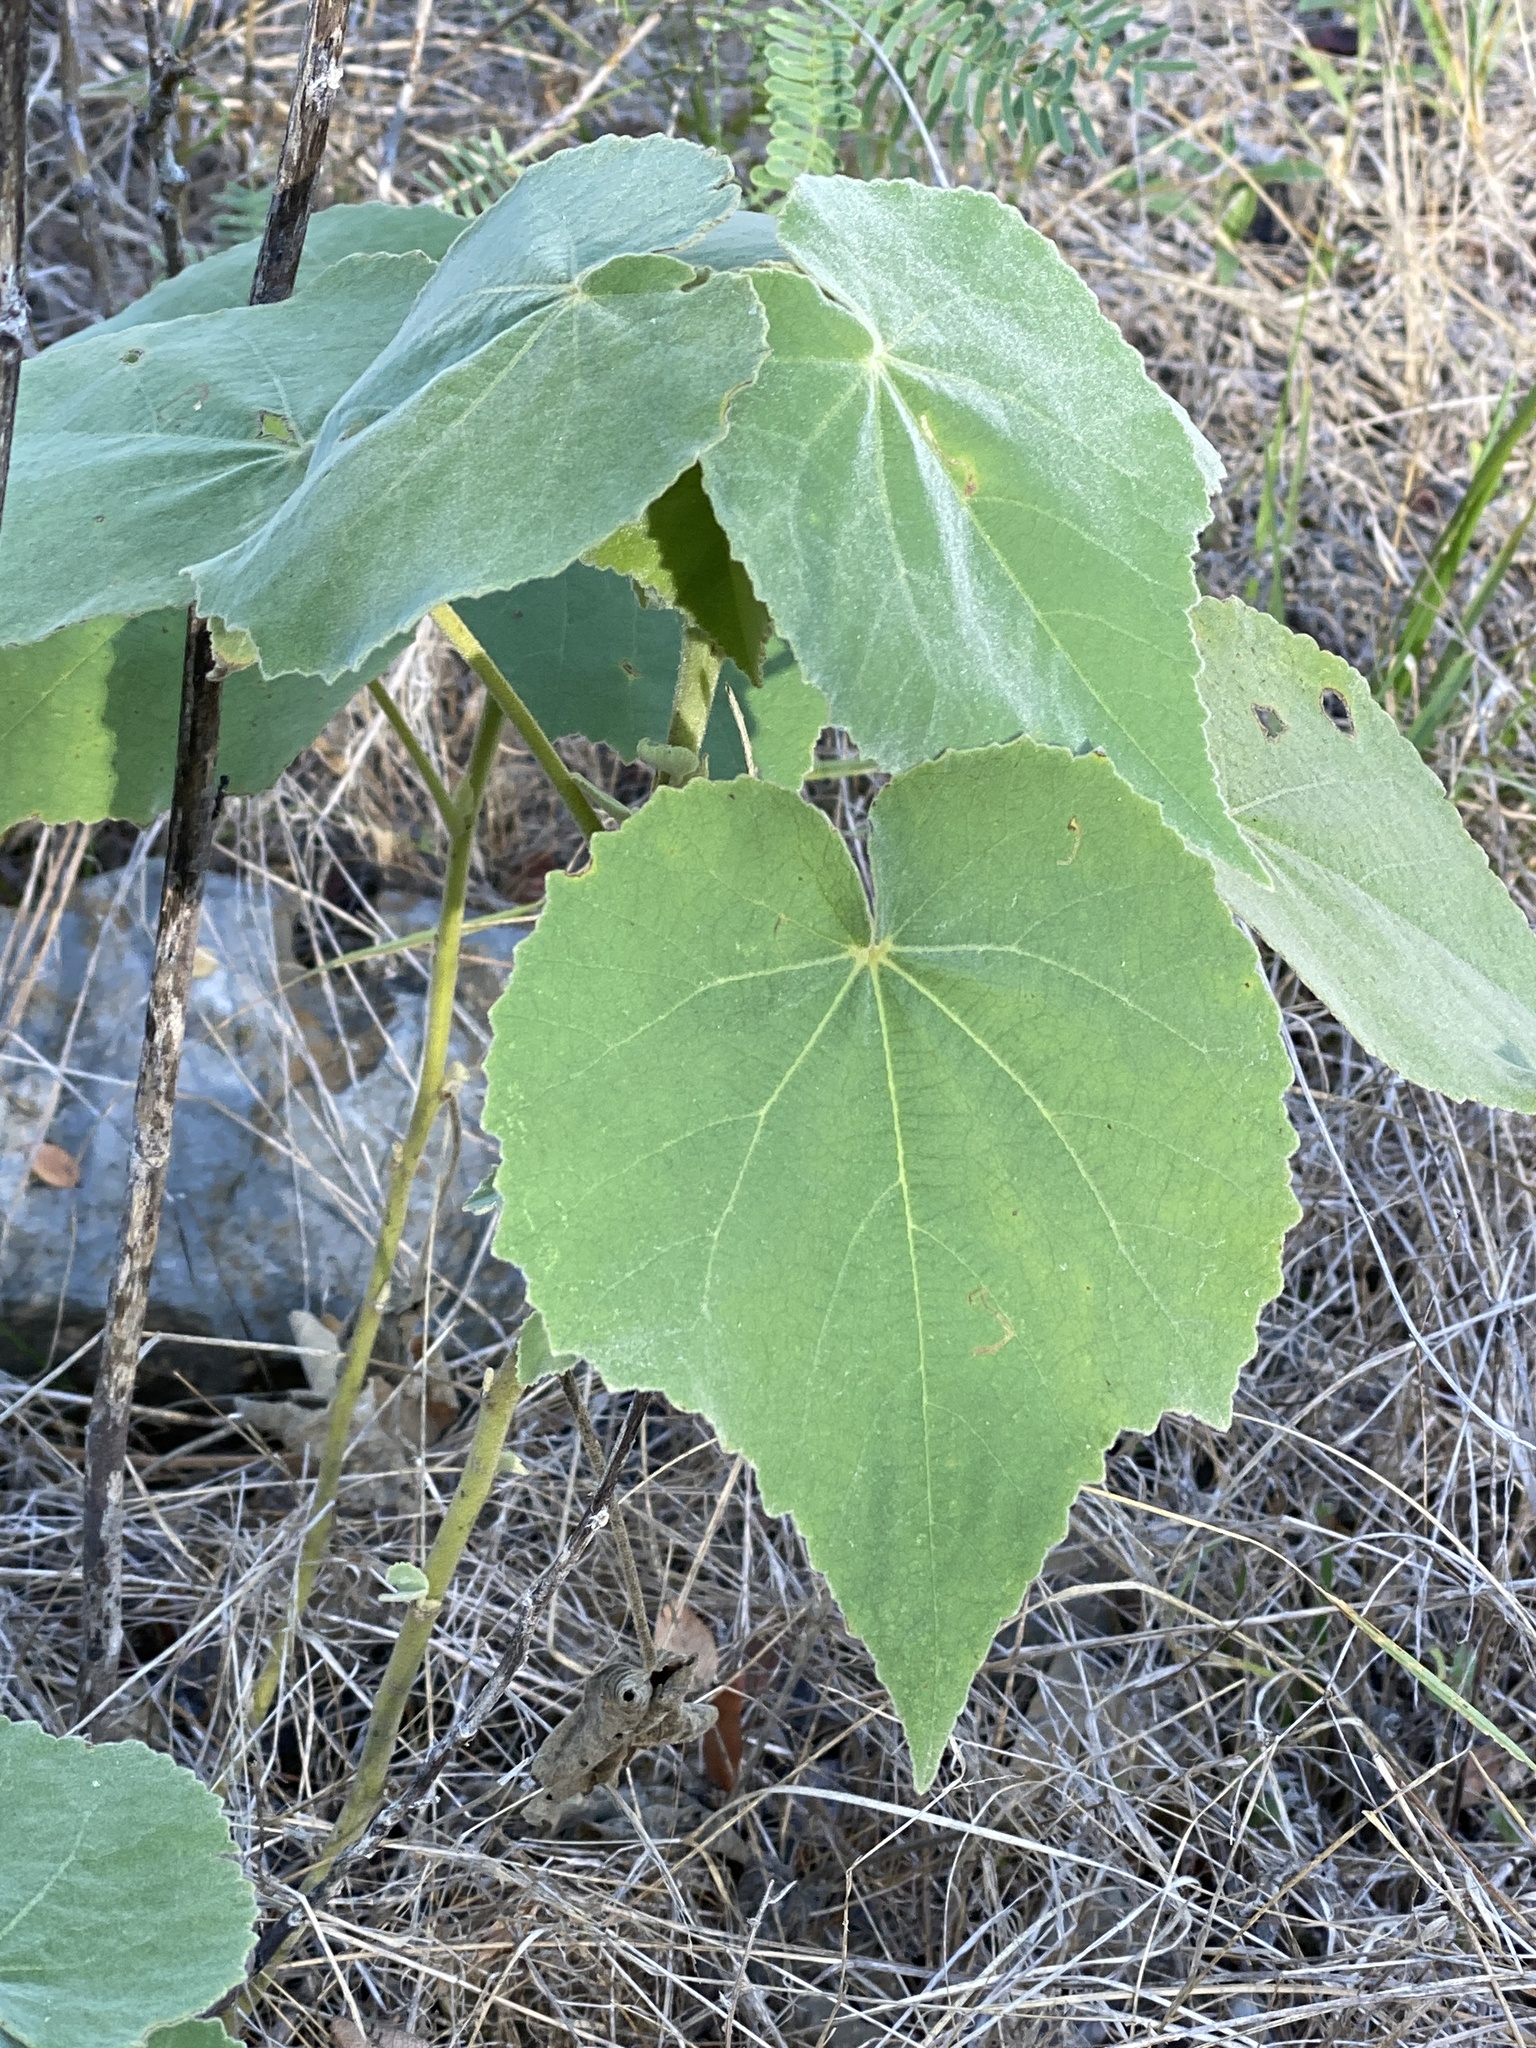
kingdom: Plantae
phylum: Tracheophyta
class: Magnoliopsida
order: Malvales
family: Malvaceae
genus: Allowissadula
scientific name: Allowissadula holosericea
